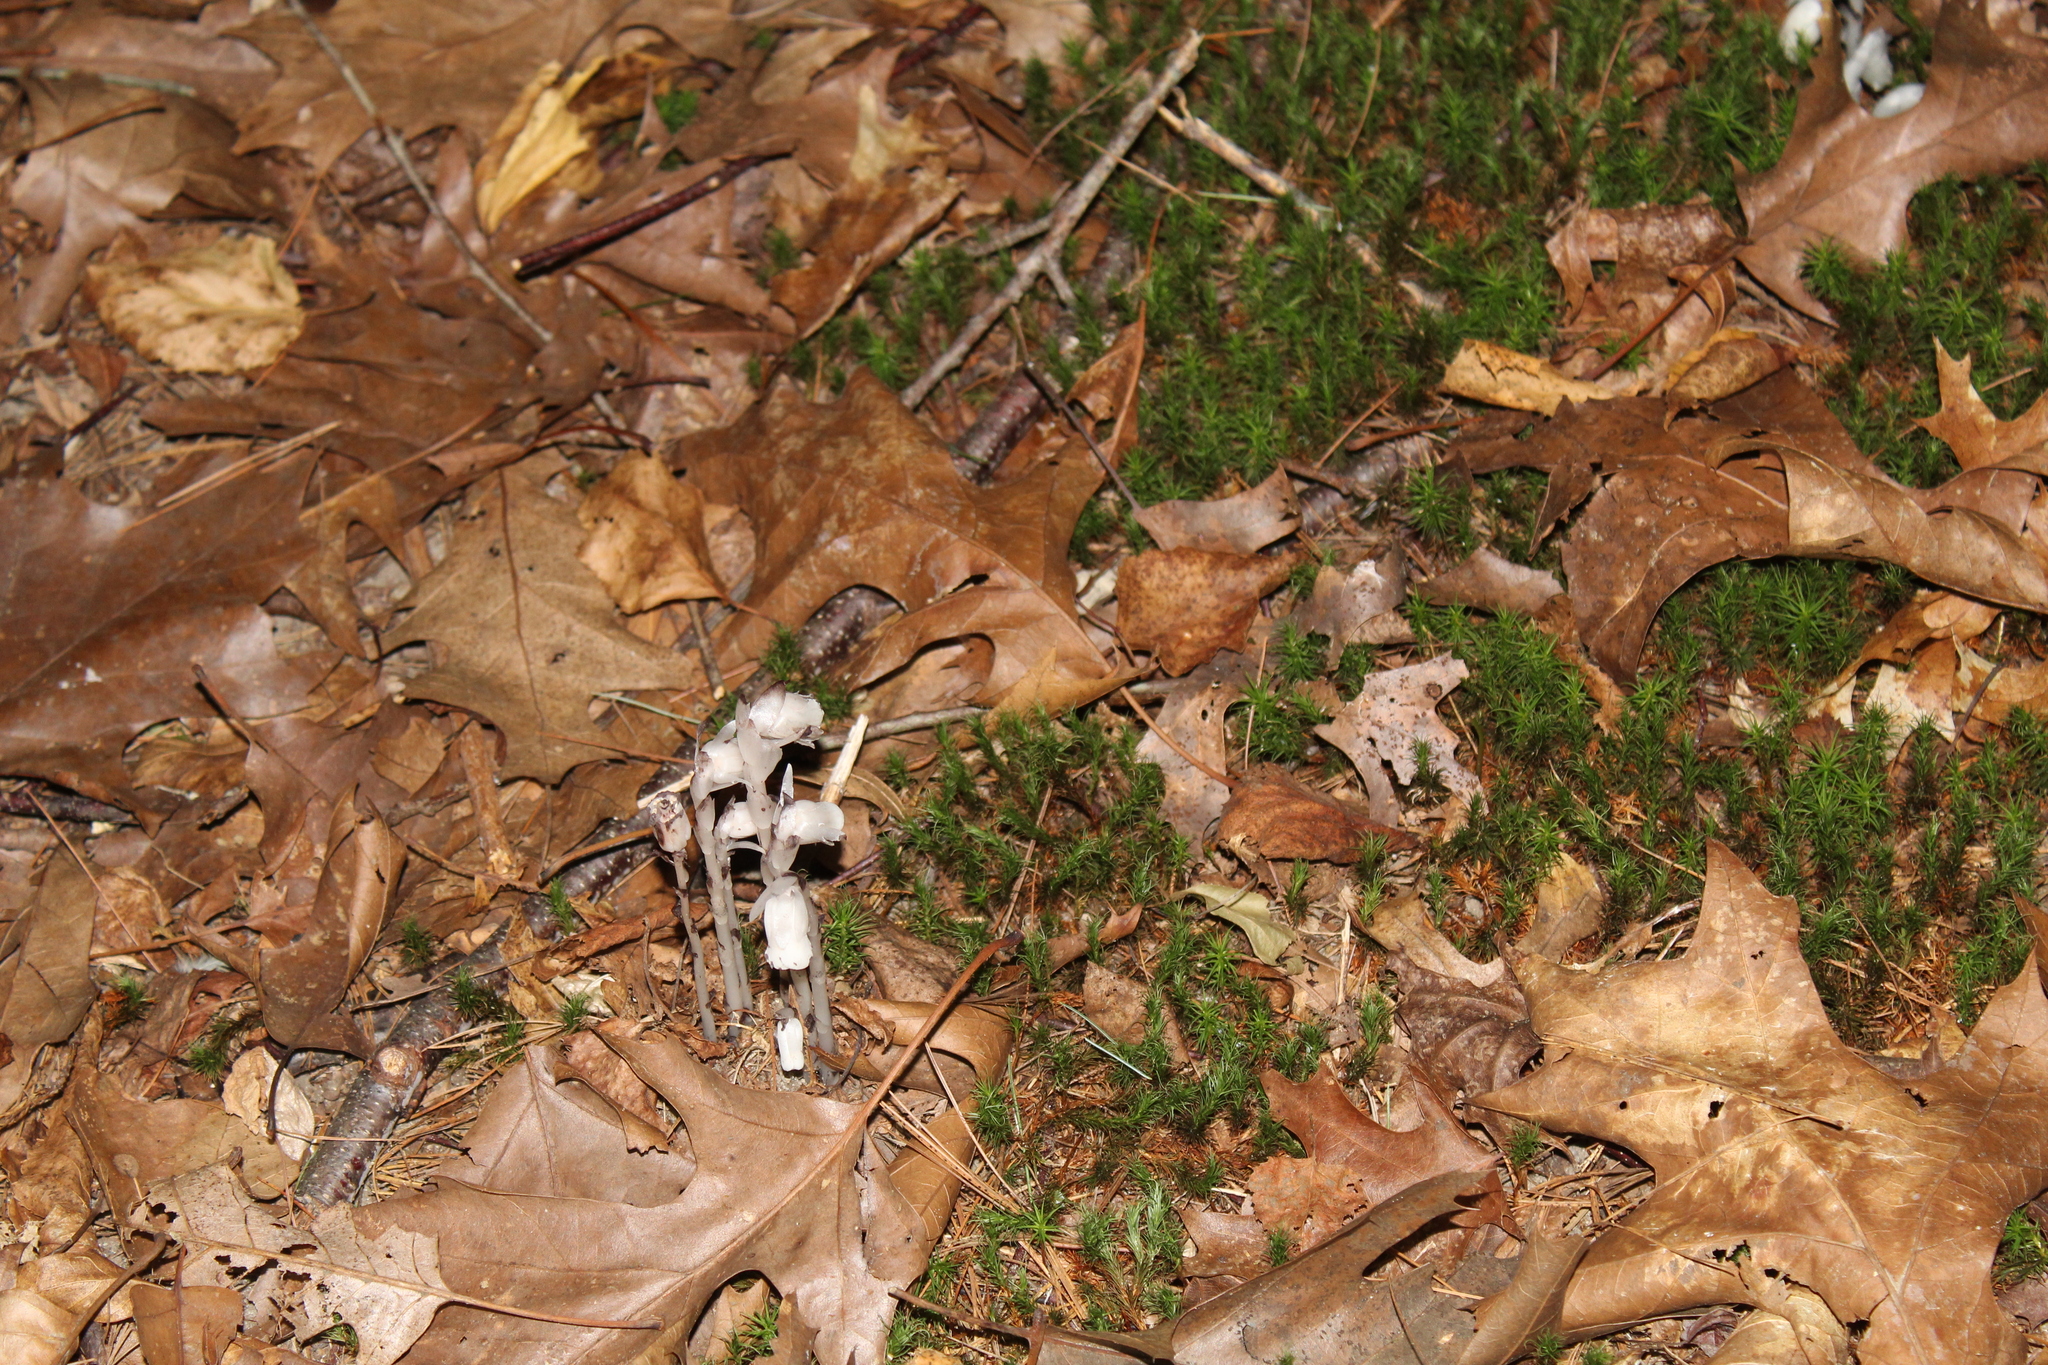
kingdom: Plantae
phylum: Tracheophyta
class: Magnoliopsida
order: Ericales
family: Ericaceae
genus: Monotropa
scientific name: Monotropa uniflora
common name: Convulsion root
